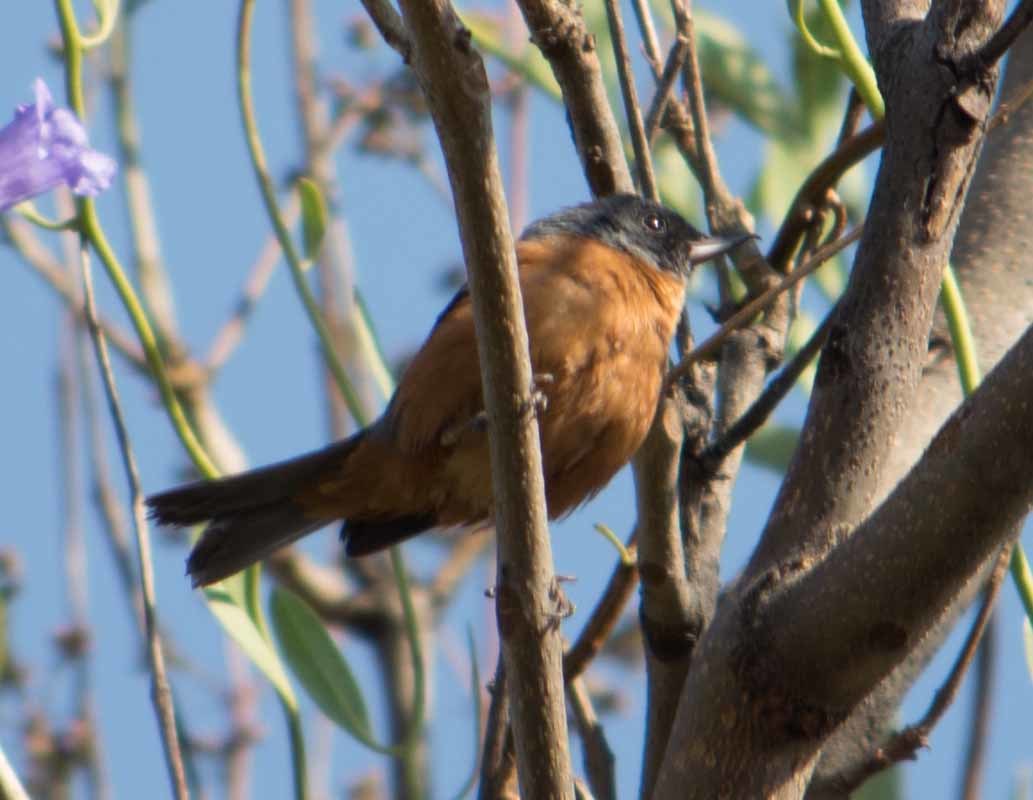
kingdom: Animalia
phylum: Chordata
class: Aves
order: Passeriformes
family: Thraupidae
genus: Diglossa
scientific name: Diglossa baritula
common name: Cinnamon-bellied flowerpiercer
